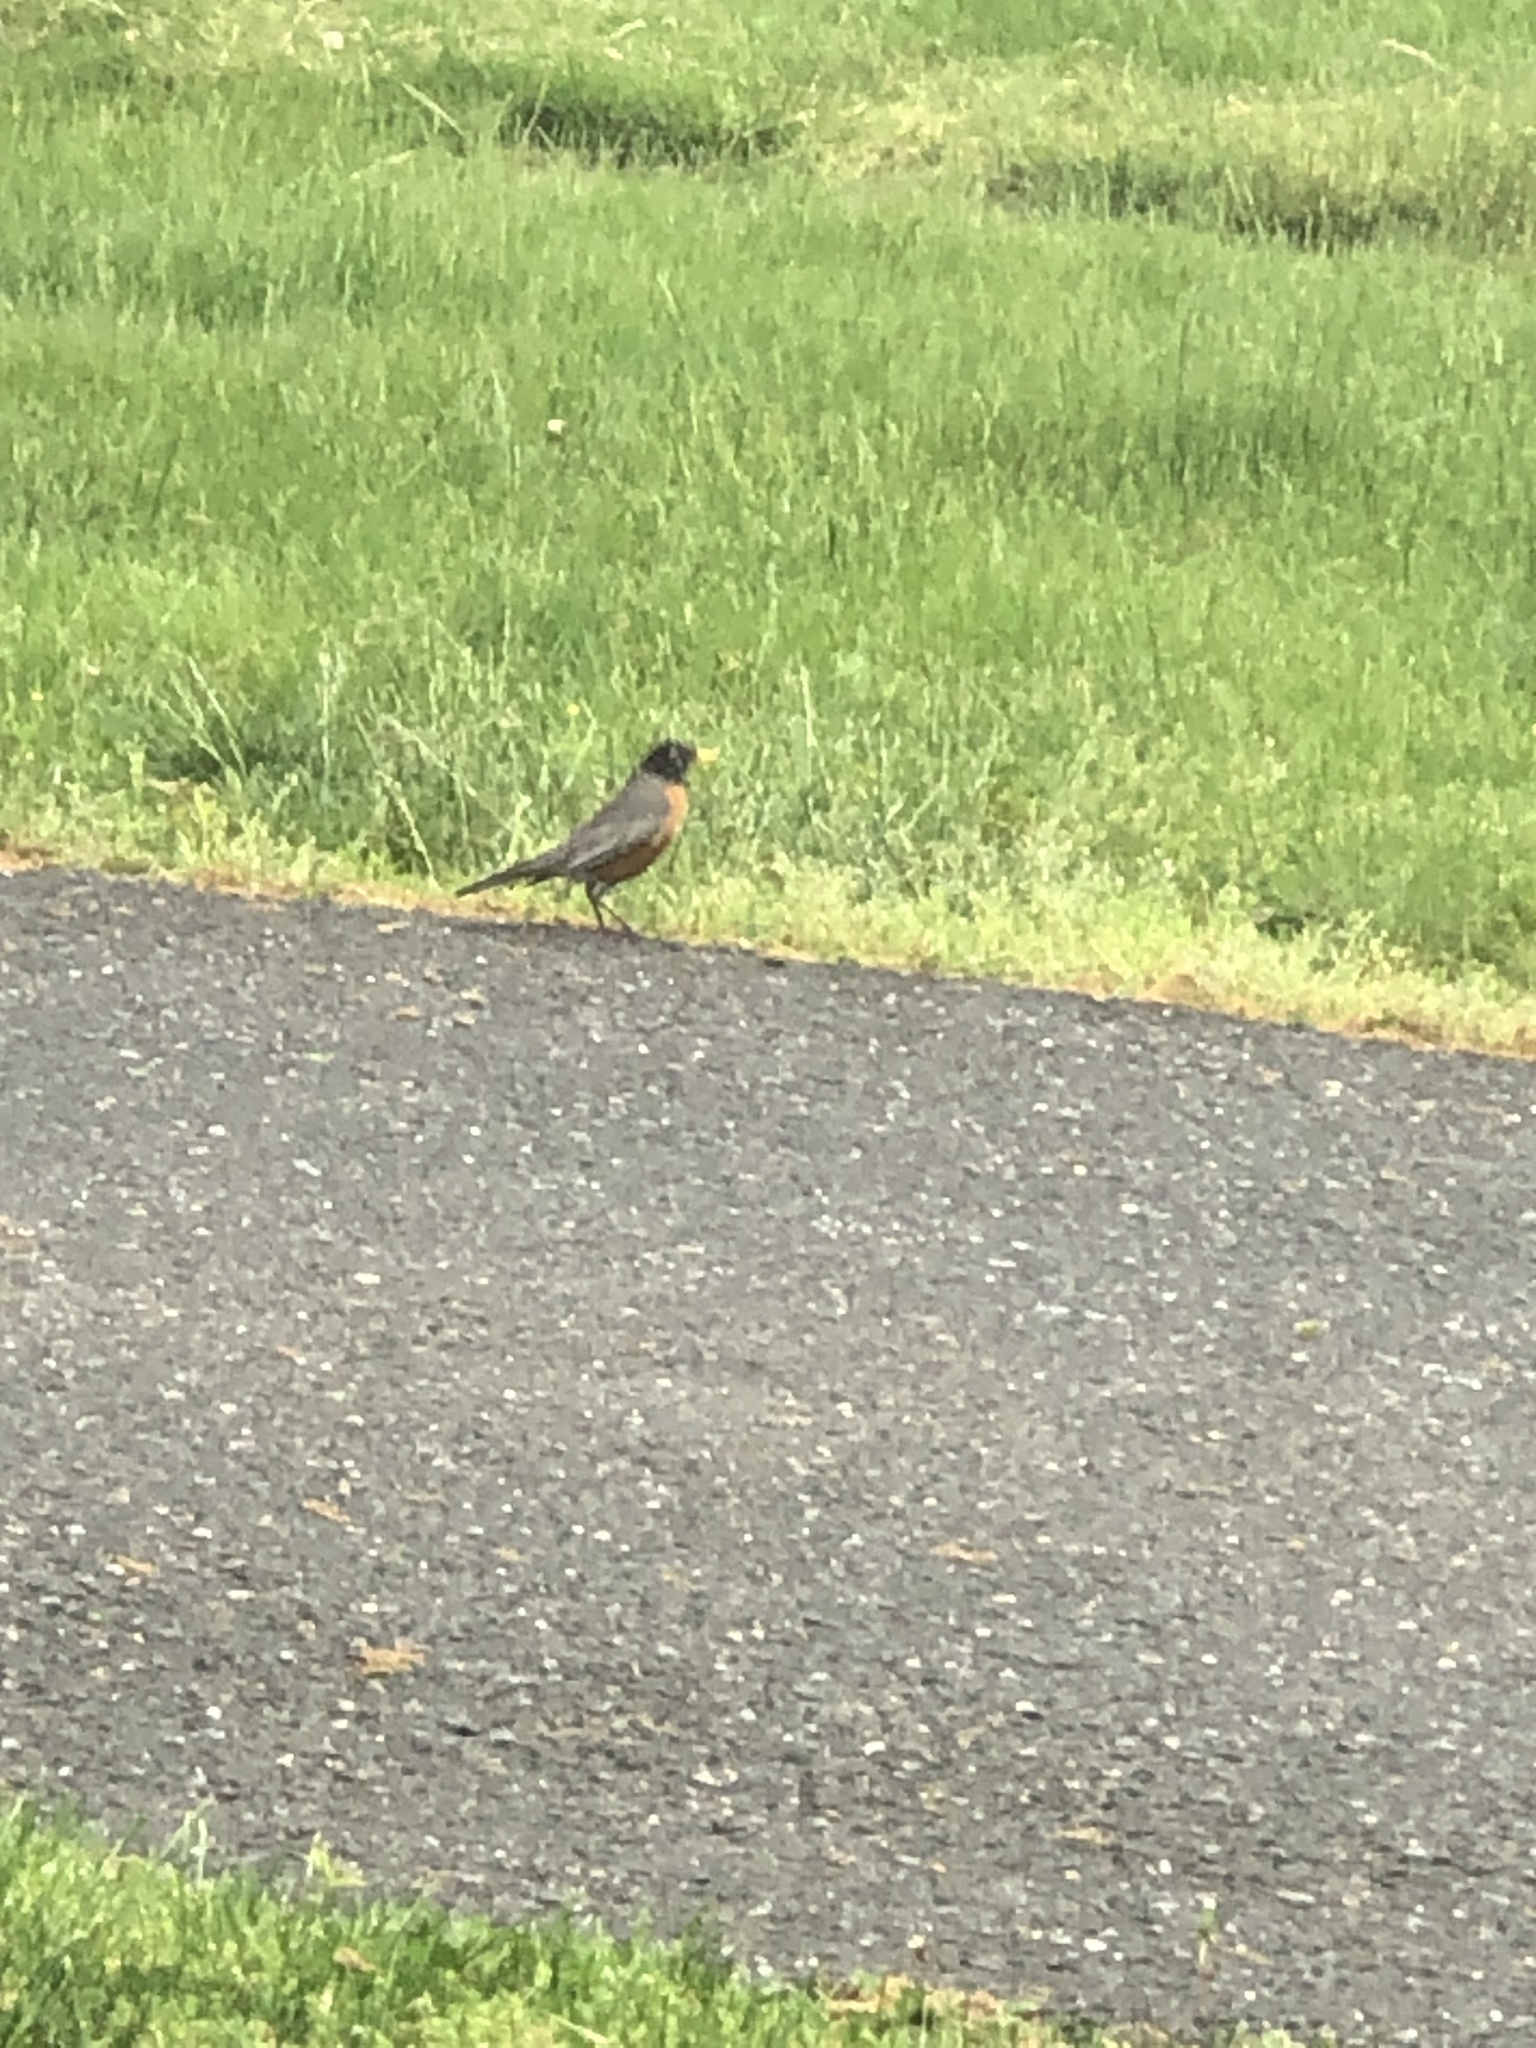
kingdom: Animalia
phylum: Chordata
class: Aves
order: Passeriformes
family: Turdidae
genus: Turdus
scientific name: Turdus migratorius
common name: American robin
